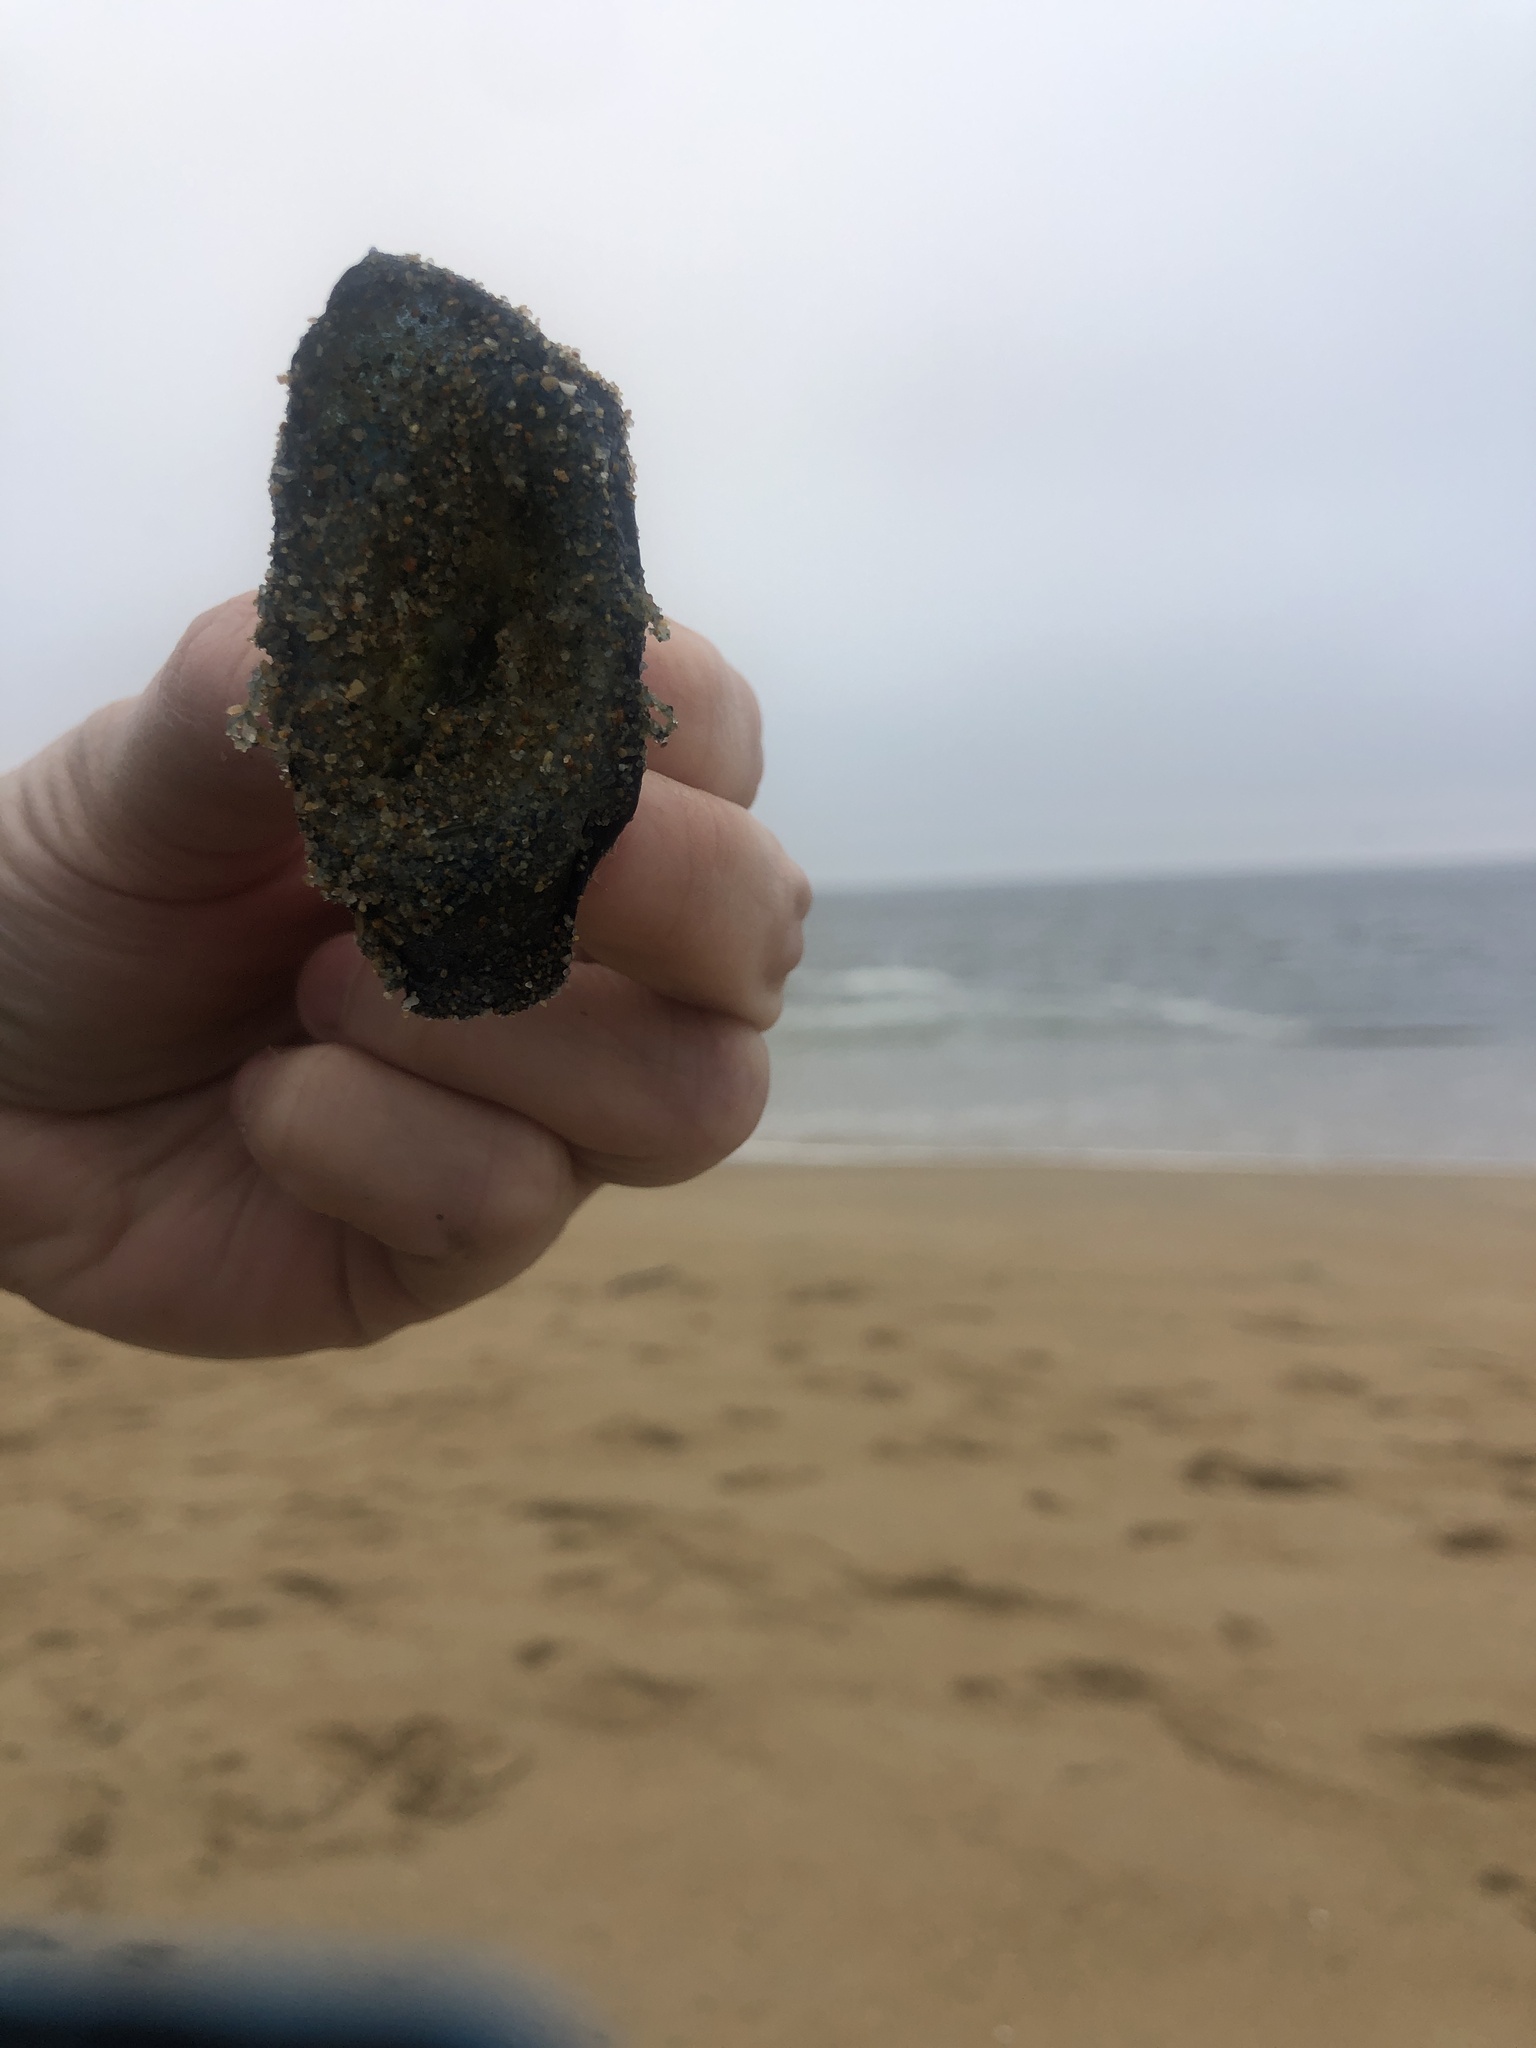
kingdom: Animalia
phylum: Cnidaria
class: Hydrozoa
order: Anthoathecata
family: Porpitidae
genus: Velella
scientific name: Velella velella
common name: By-the-wind-sailor
